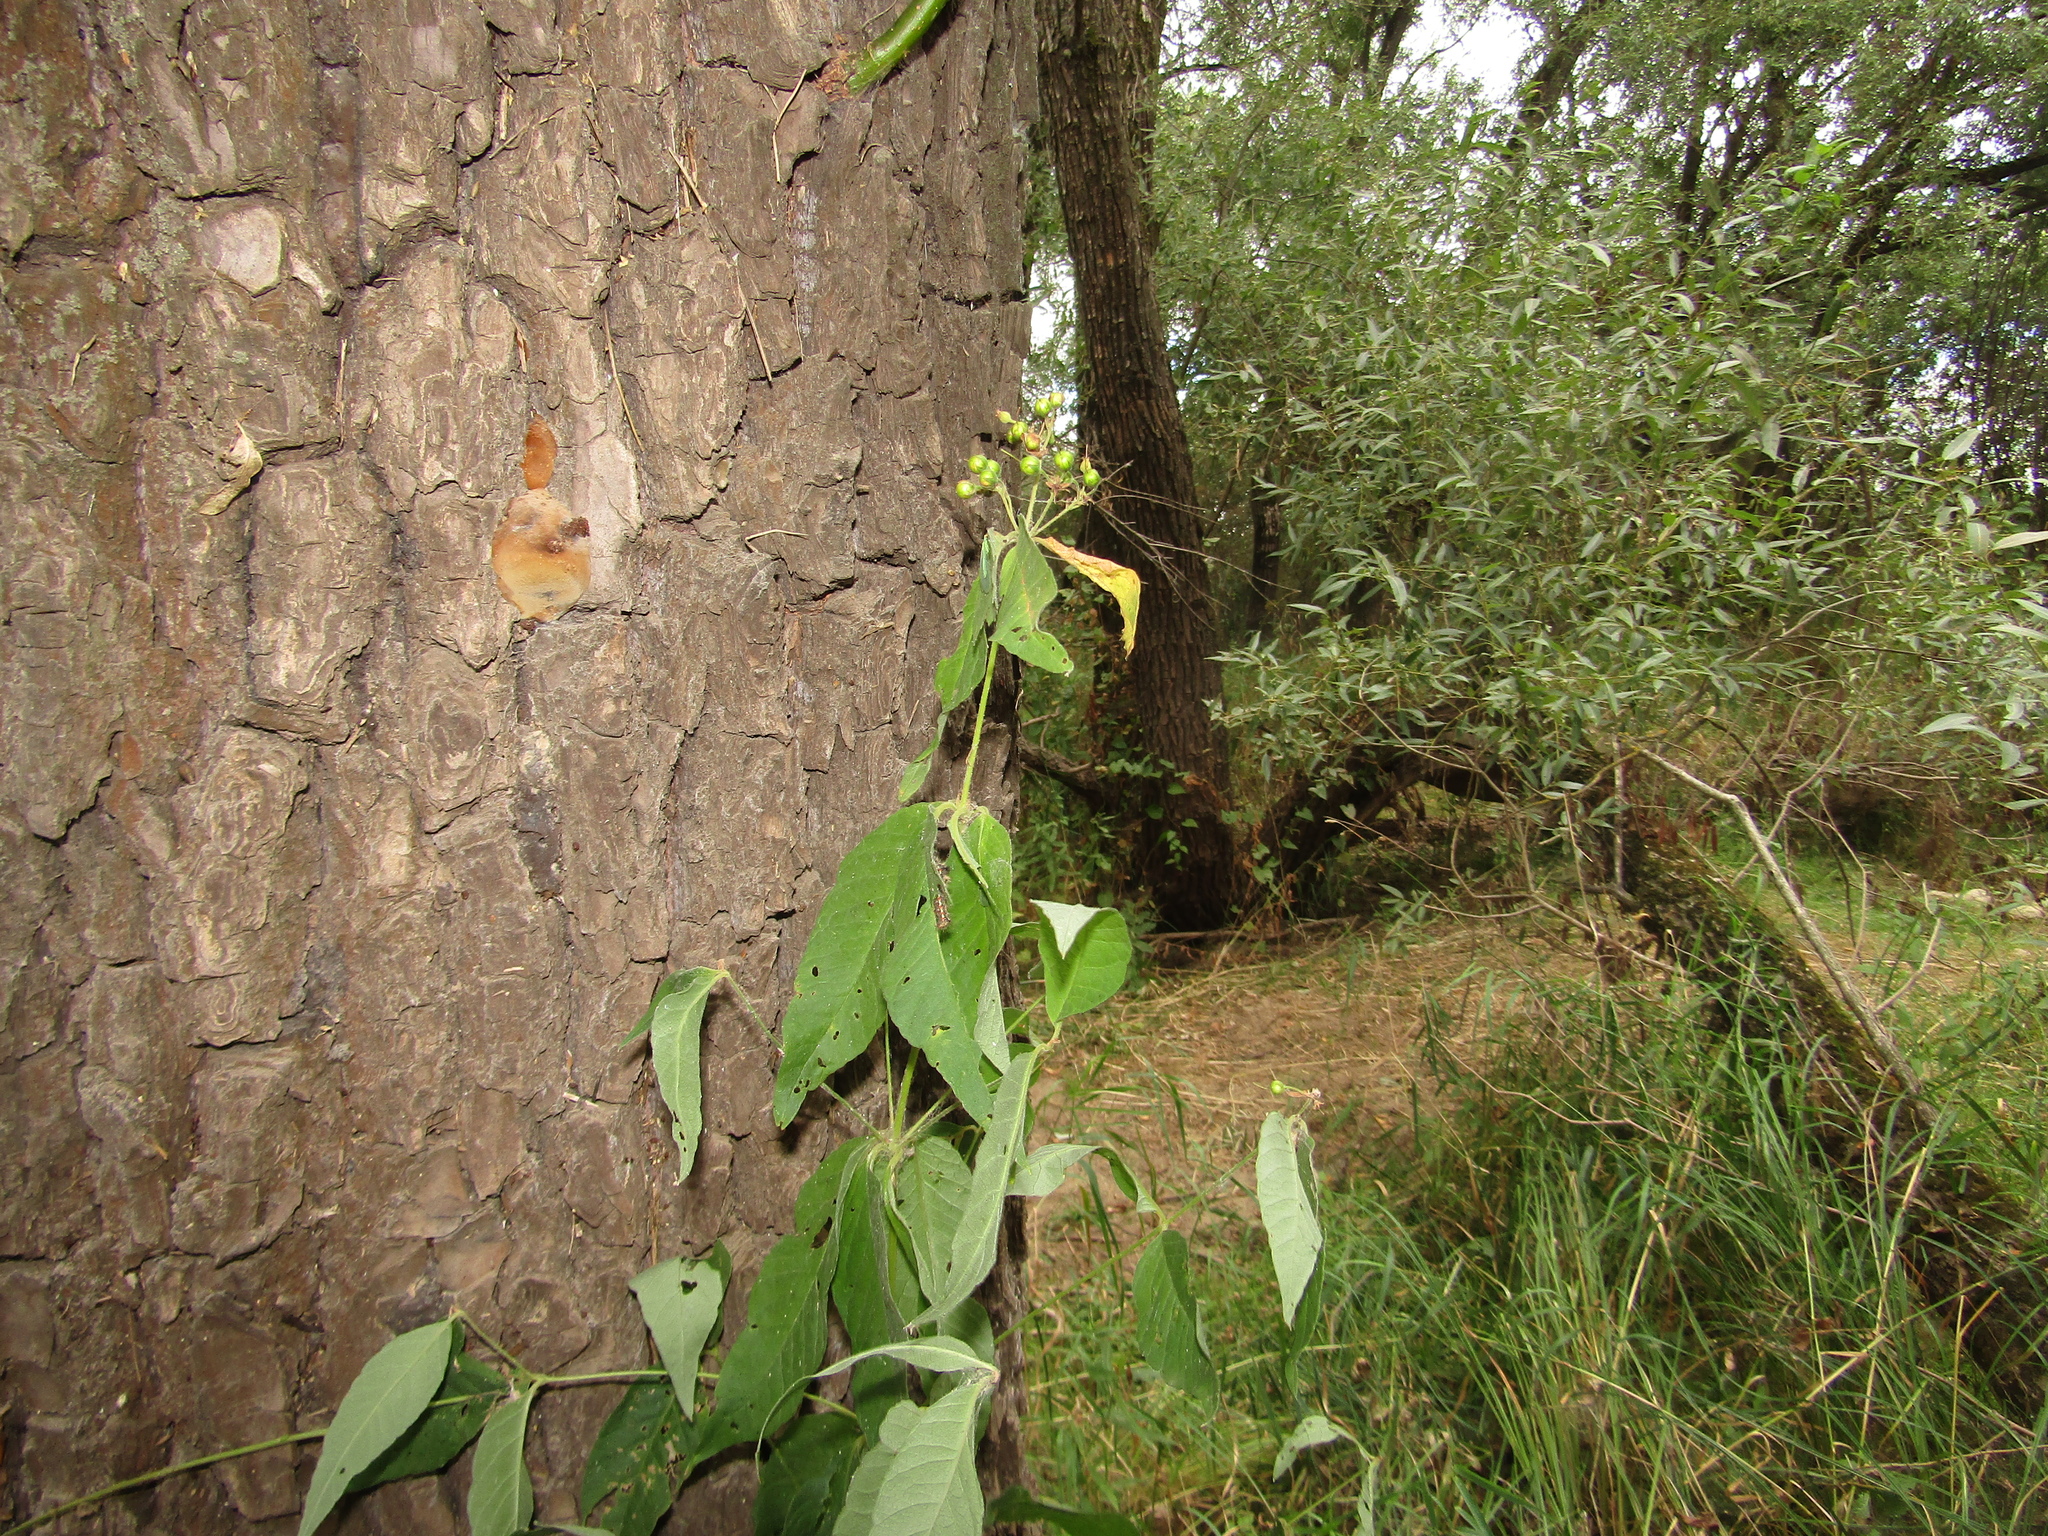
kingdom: Plantae
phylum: Tracheophyta
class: Magnoliopsida
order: Lamiales
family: Scrophulariaceae
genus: Scrophularia
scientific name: Scrophularia nodosa
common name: Common figwort
